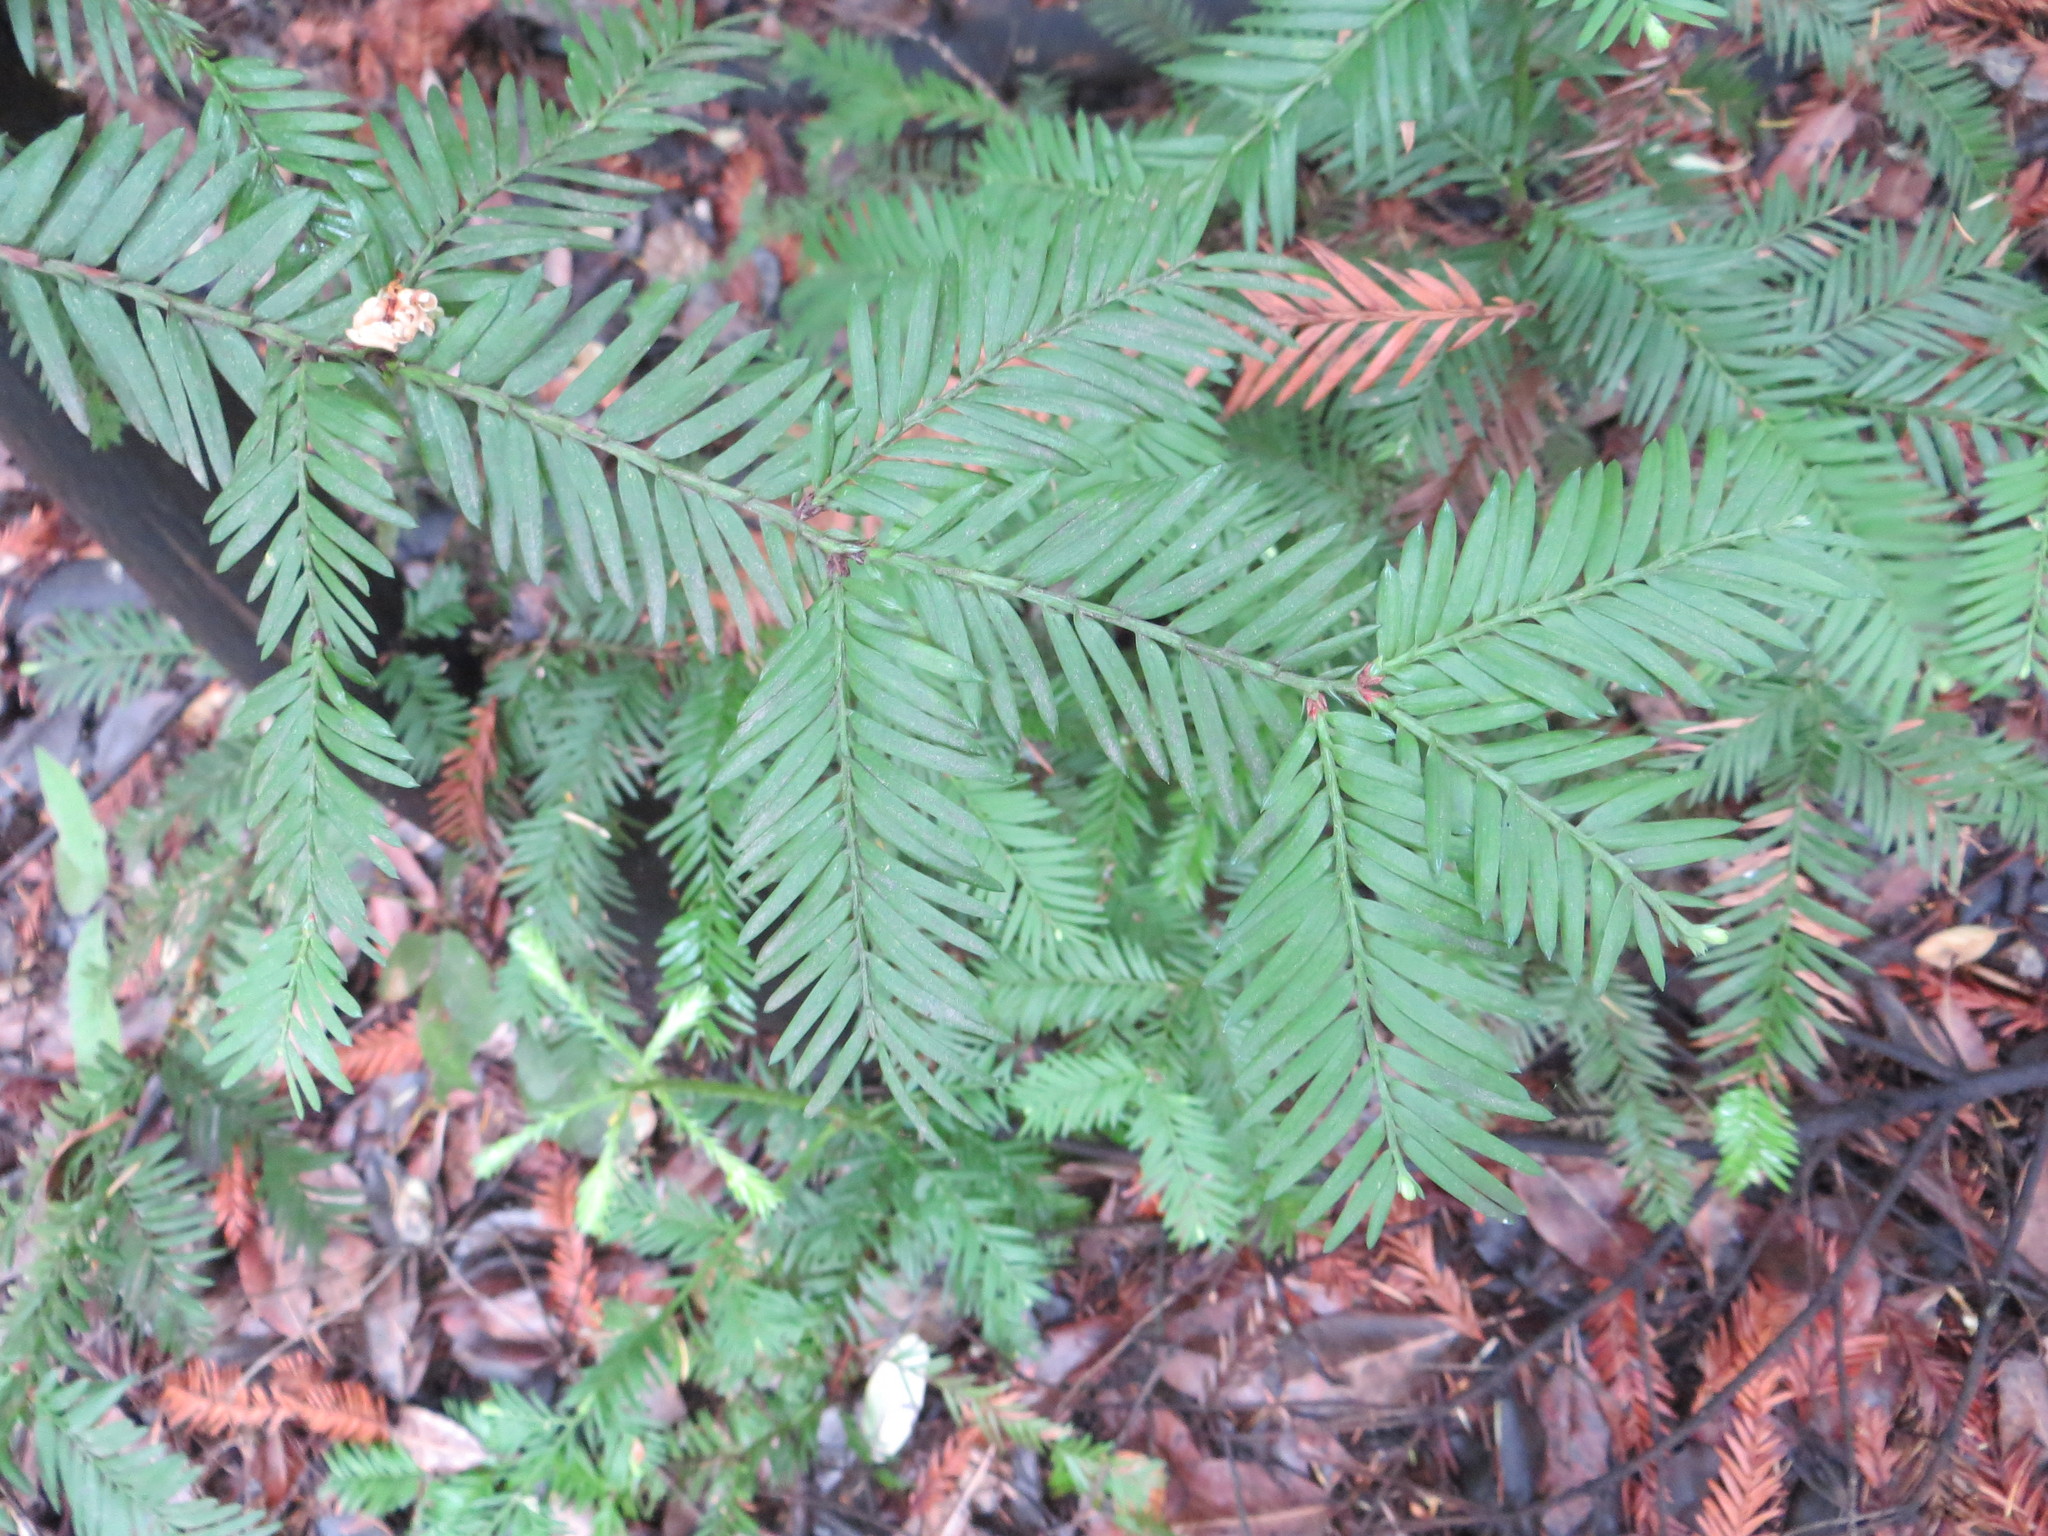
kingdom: Plantae
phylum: Tracheophyta
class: Pinopsida
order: Pinales
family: Cupressaceae
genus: Sequoia
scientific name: Sequoia sempervirens
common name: Coast redwood
